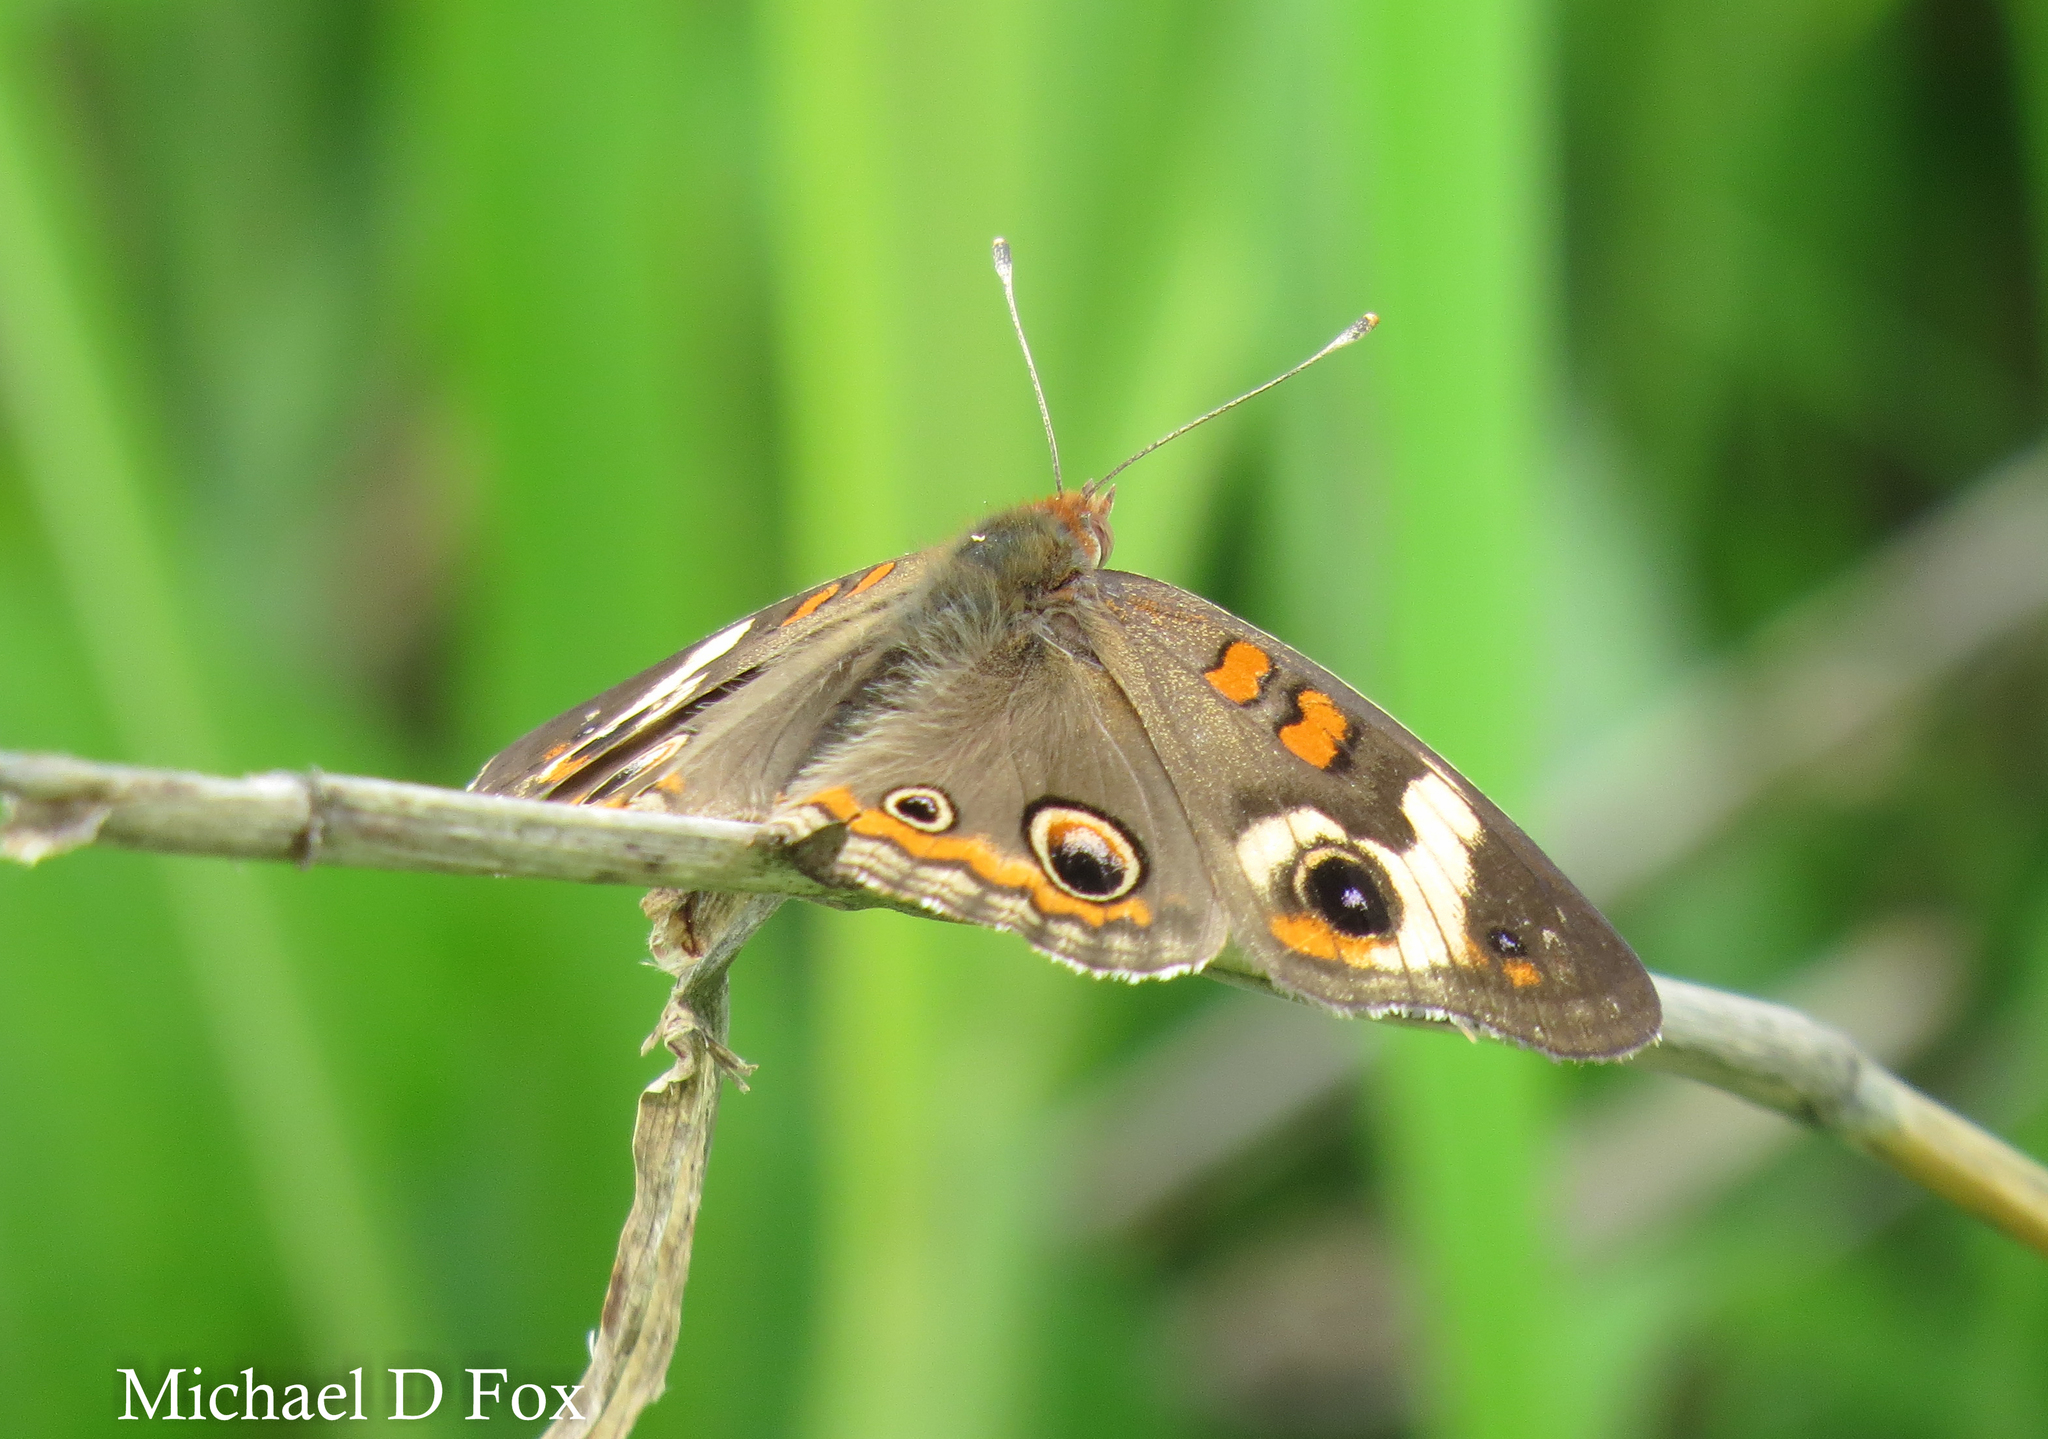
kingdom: Animalia
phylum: Arthropoda
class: Insecta
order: Lepidoptera
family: Nymphalidae
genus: Junonia
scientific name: Junonia coenia
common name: Common buckeye
